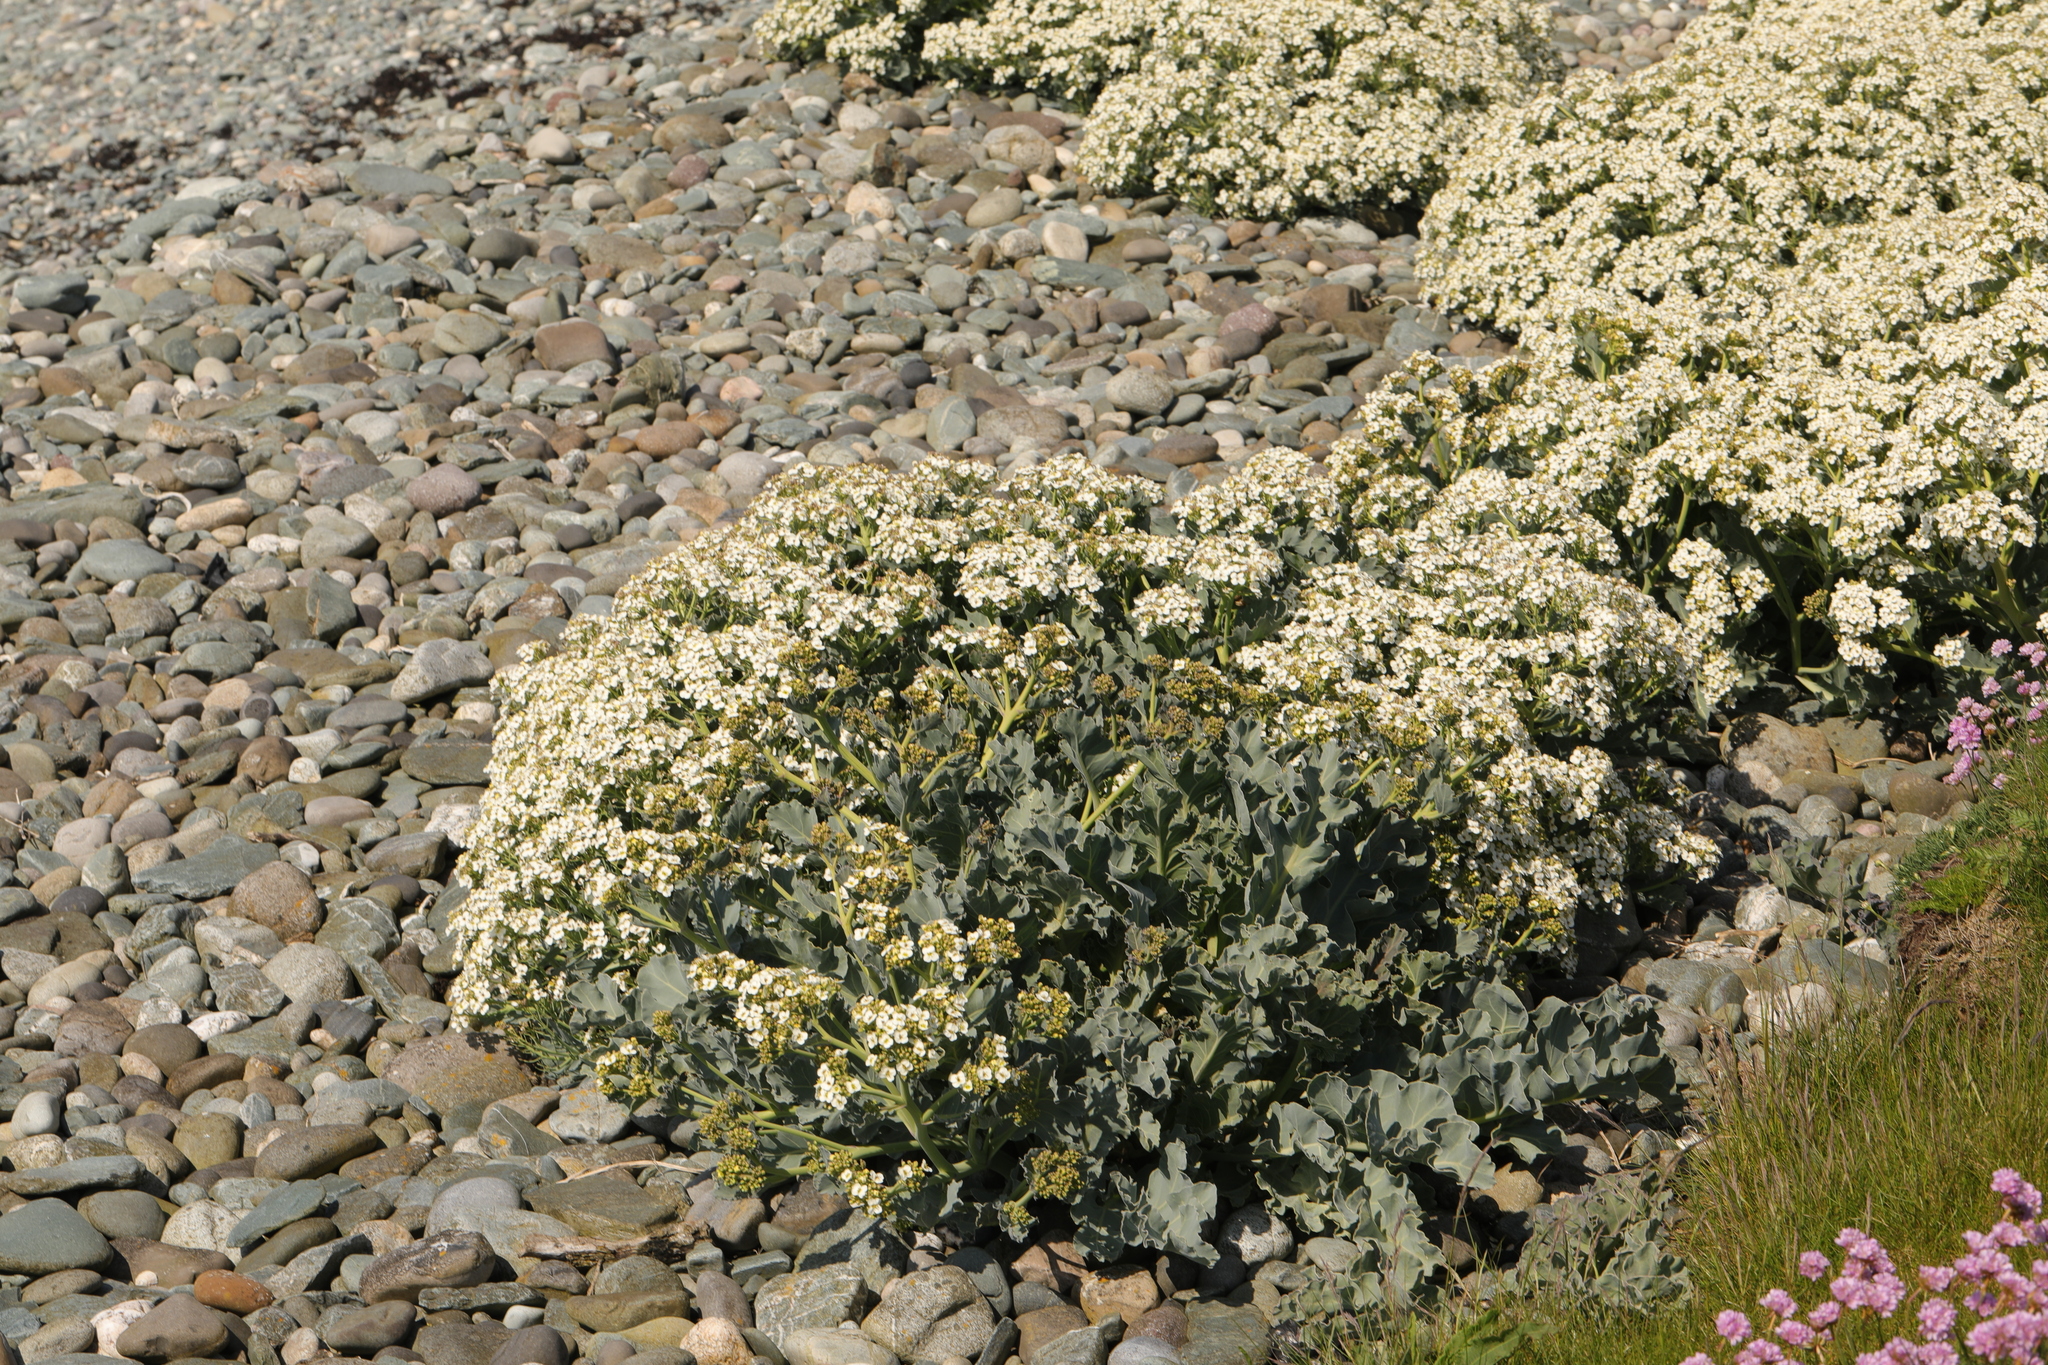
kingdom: Plantae
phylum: Tracheophyta
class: Magnoliopsida
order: Brassicales
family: Brassicaceae
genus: Crambe
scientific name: Crambe maritima
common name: Sea-kale
